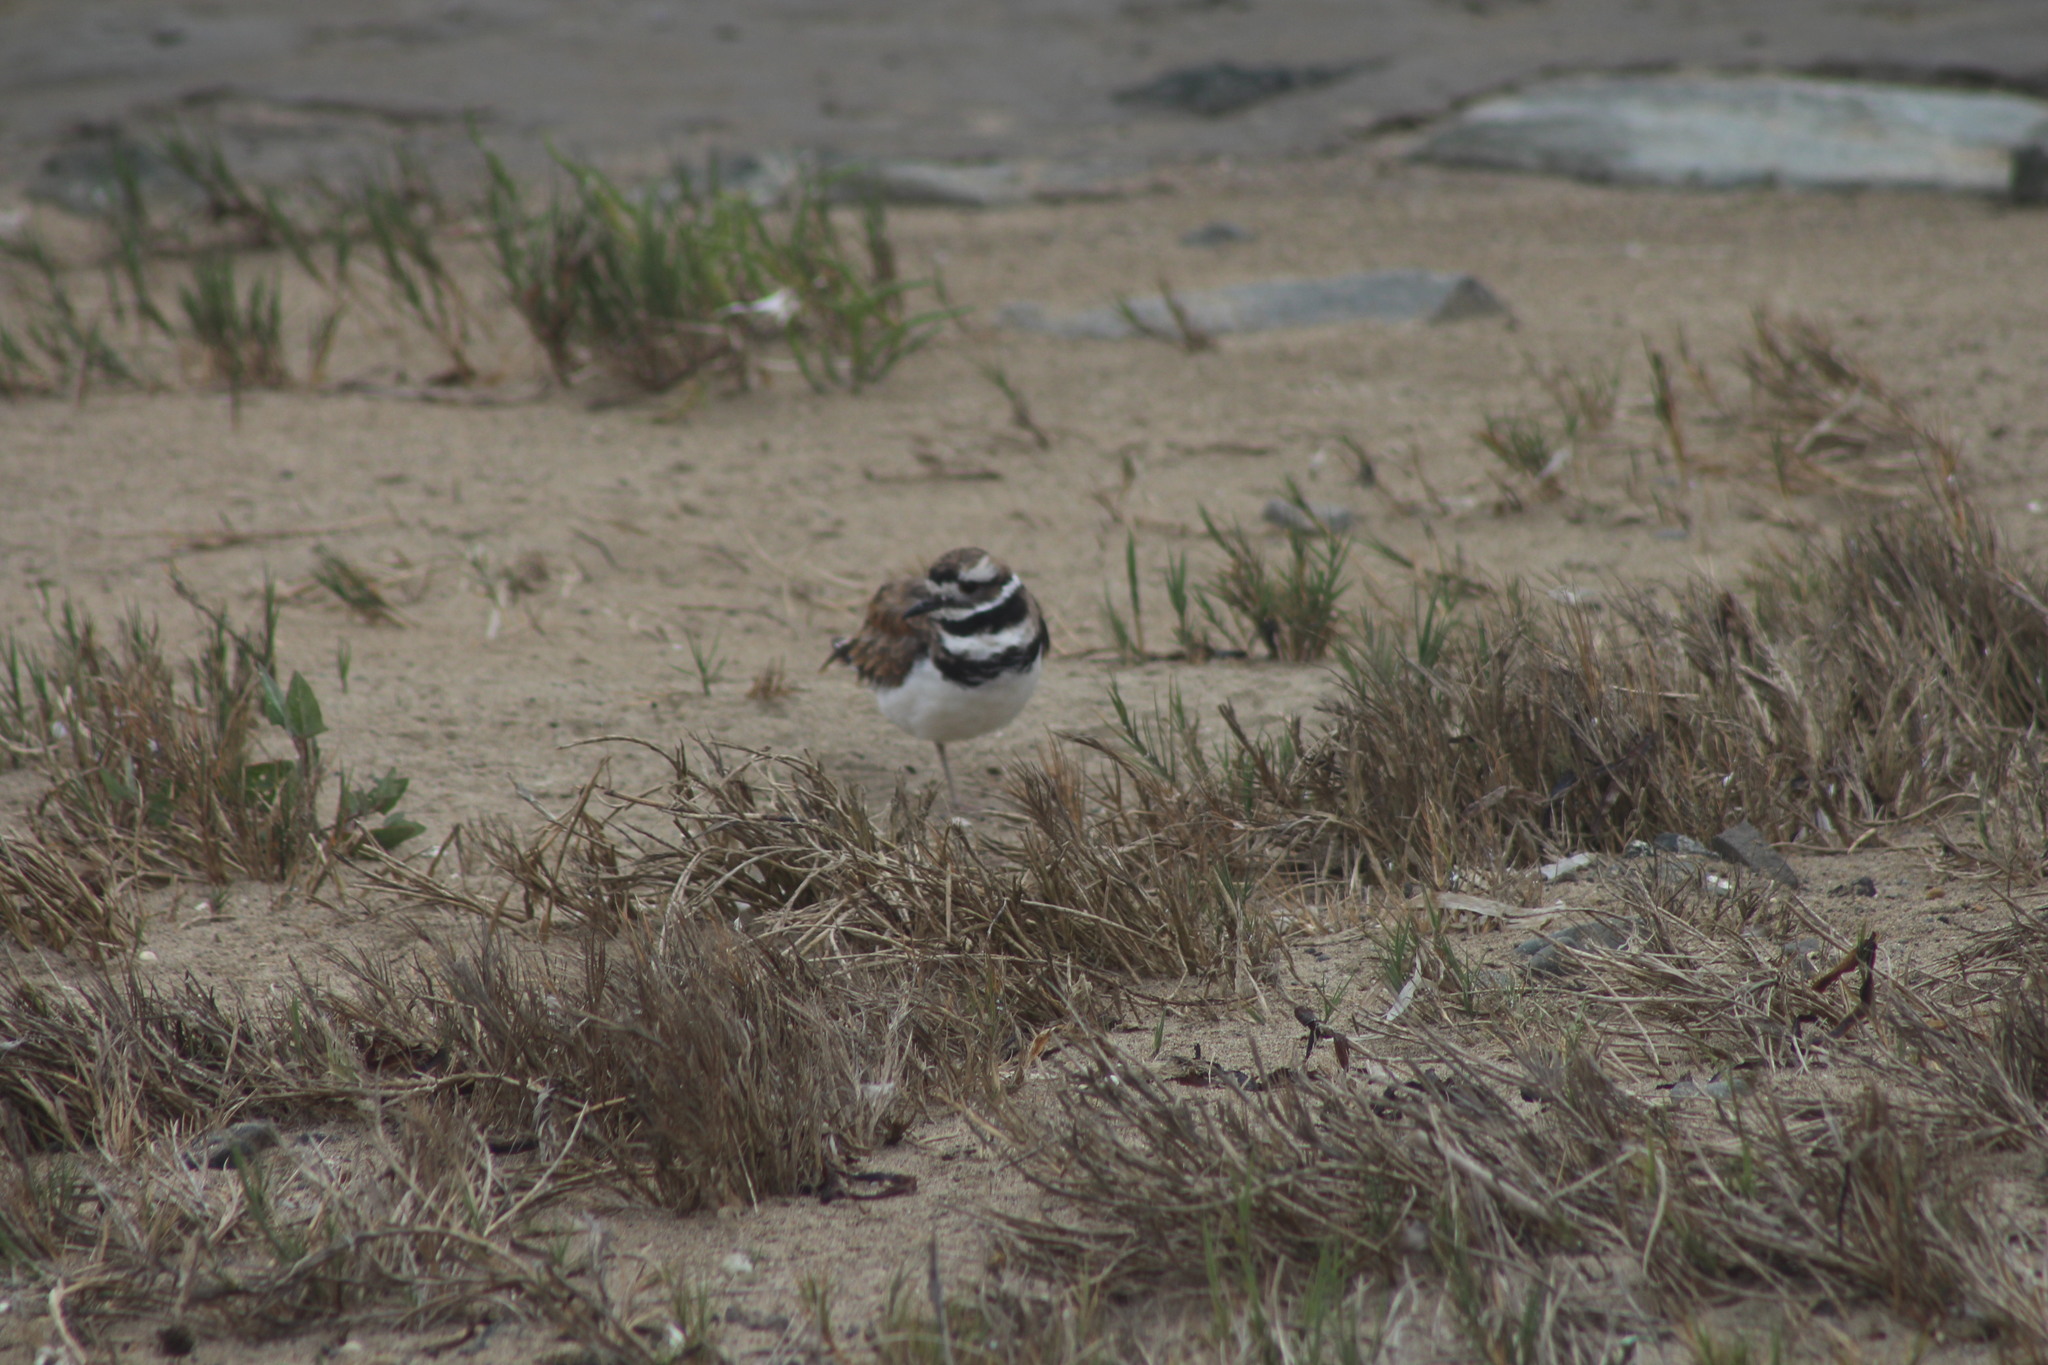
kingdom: Animalia
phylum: Chordata
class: Aves
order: Charadriiformes
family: Charadriidae
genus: Charadrius
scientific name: Charadrius vociferus
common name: Killdeer
